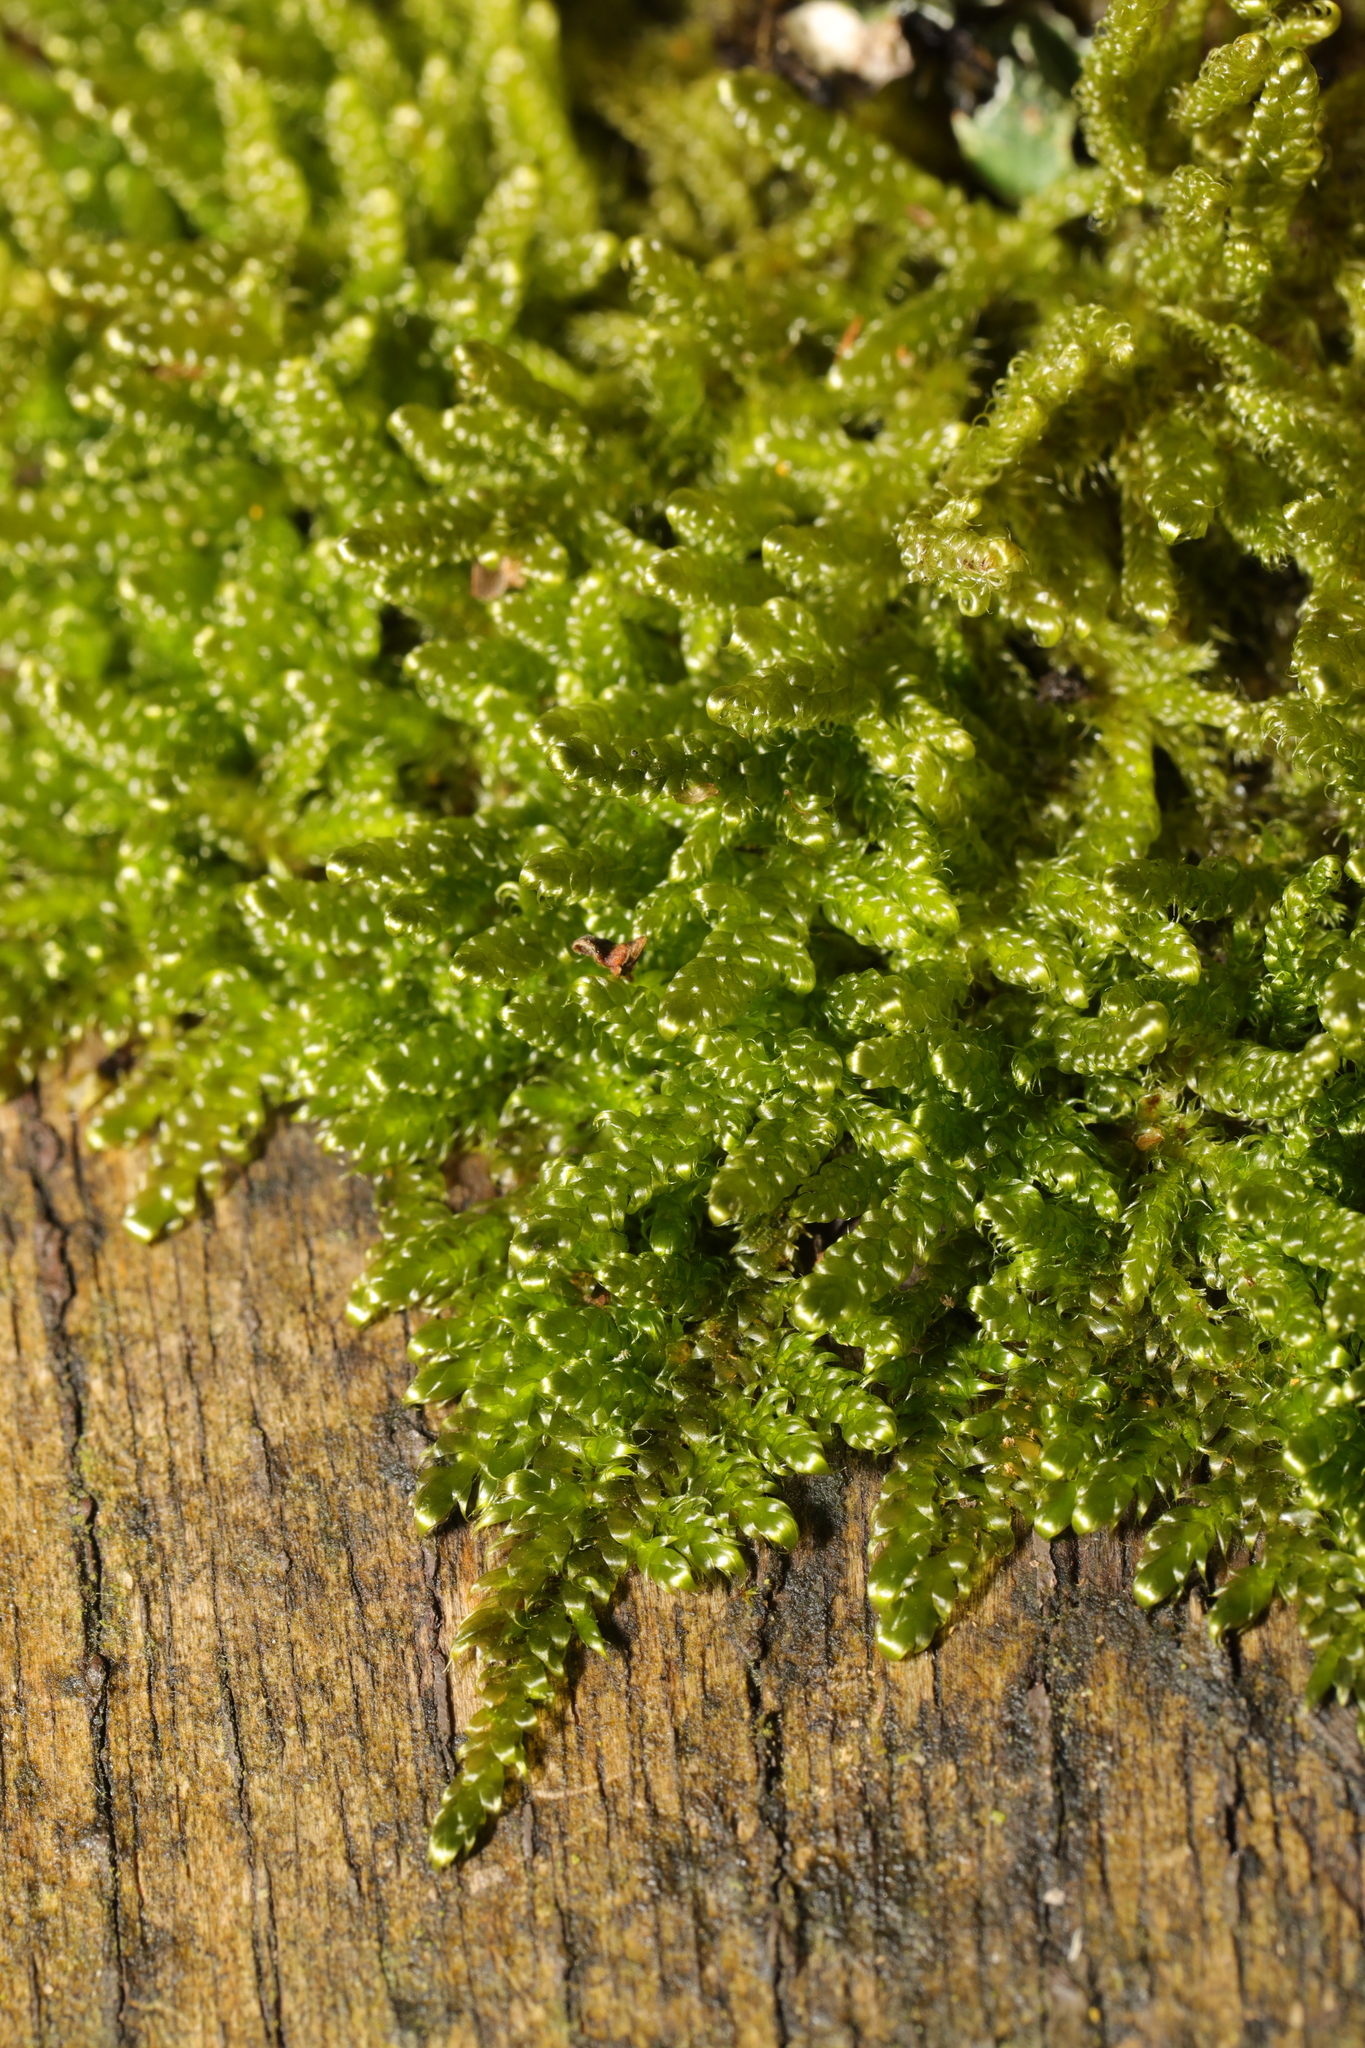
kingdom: Plantae
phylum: Bryophyta
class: Bryopsida
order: Hypnales
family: Hypnaceae
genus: Hypnum
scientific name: Hypnum cupressiforme
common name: Cypress-leaved plait-moss
